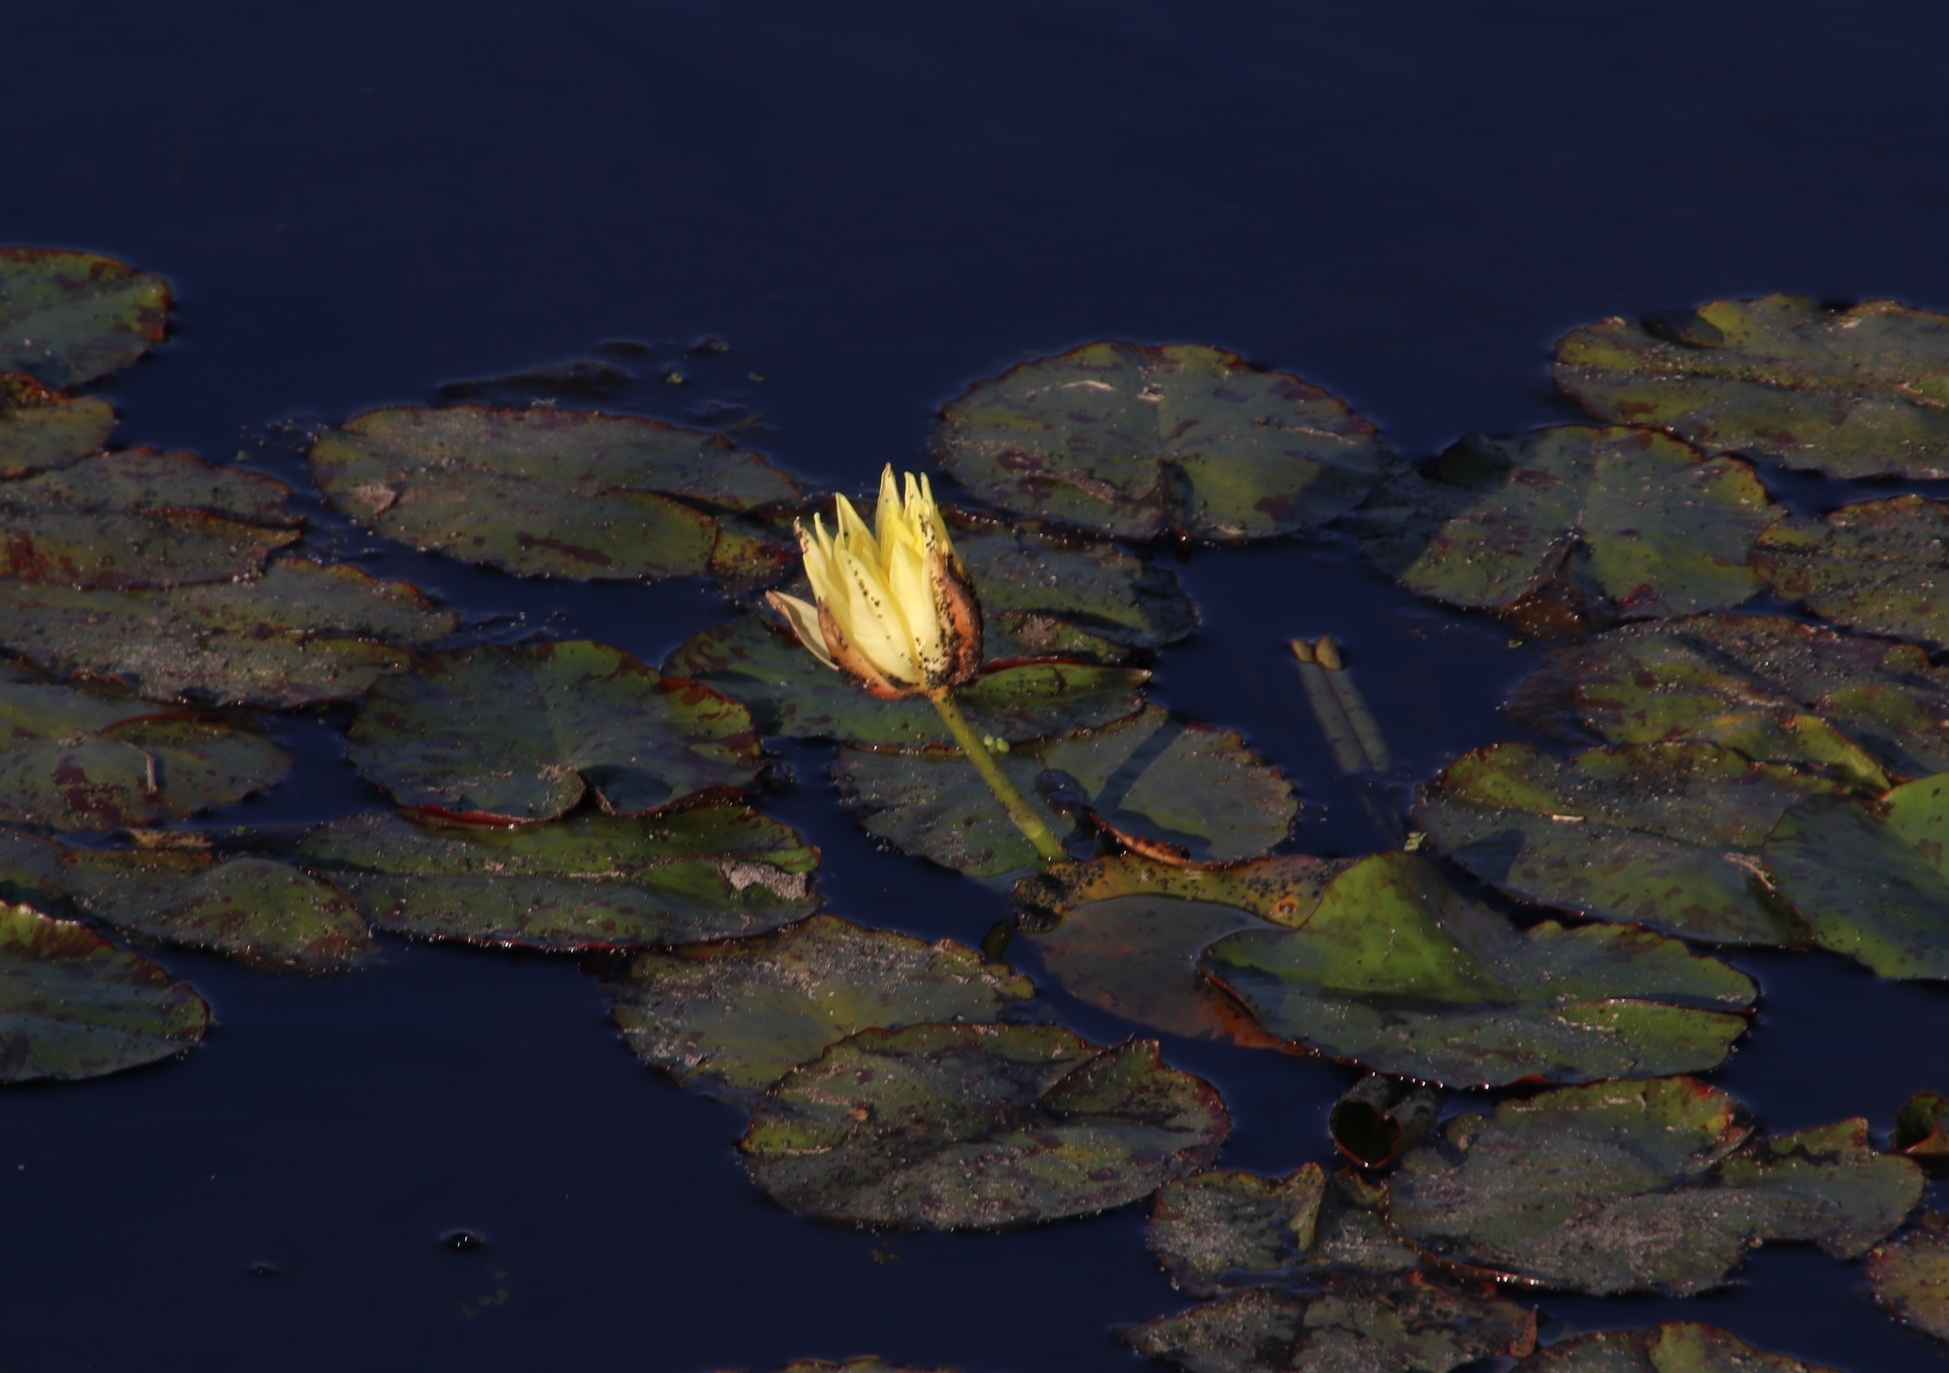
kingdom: Plantae
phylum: Tracheophyta
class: Magnoliopsida
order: Nymphaeales
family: Nymphaeaceae
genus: Nymphaea
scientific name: Nymphaea mexicana
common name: Banana water-lily
